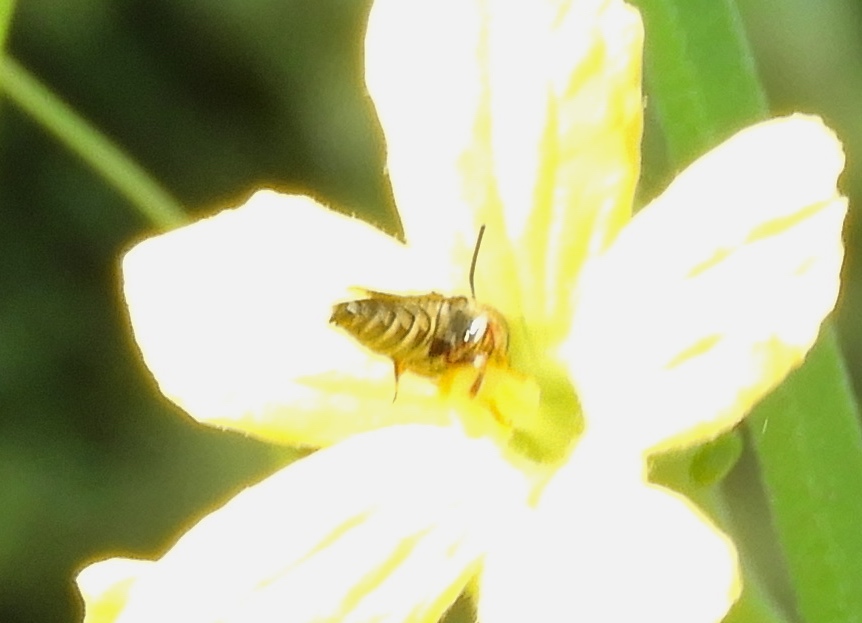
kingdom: Animalia
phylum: Arthropoda
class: Insecta
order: Hymenoptera
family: Megachilidae
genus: Coelioxys
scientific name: Coelioxys
